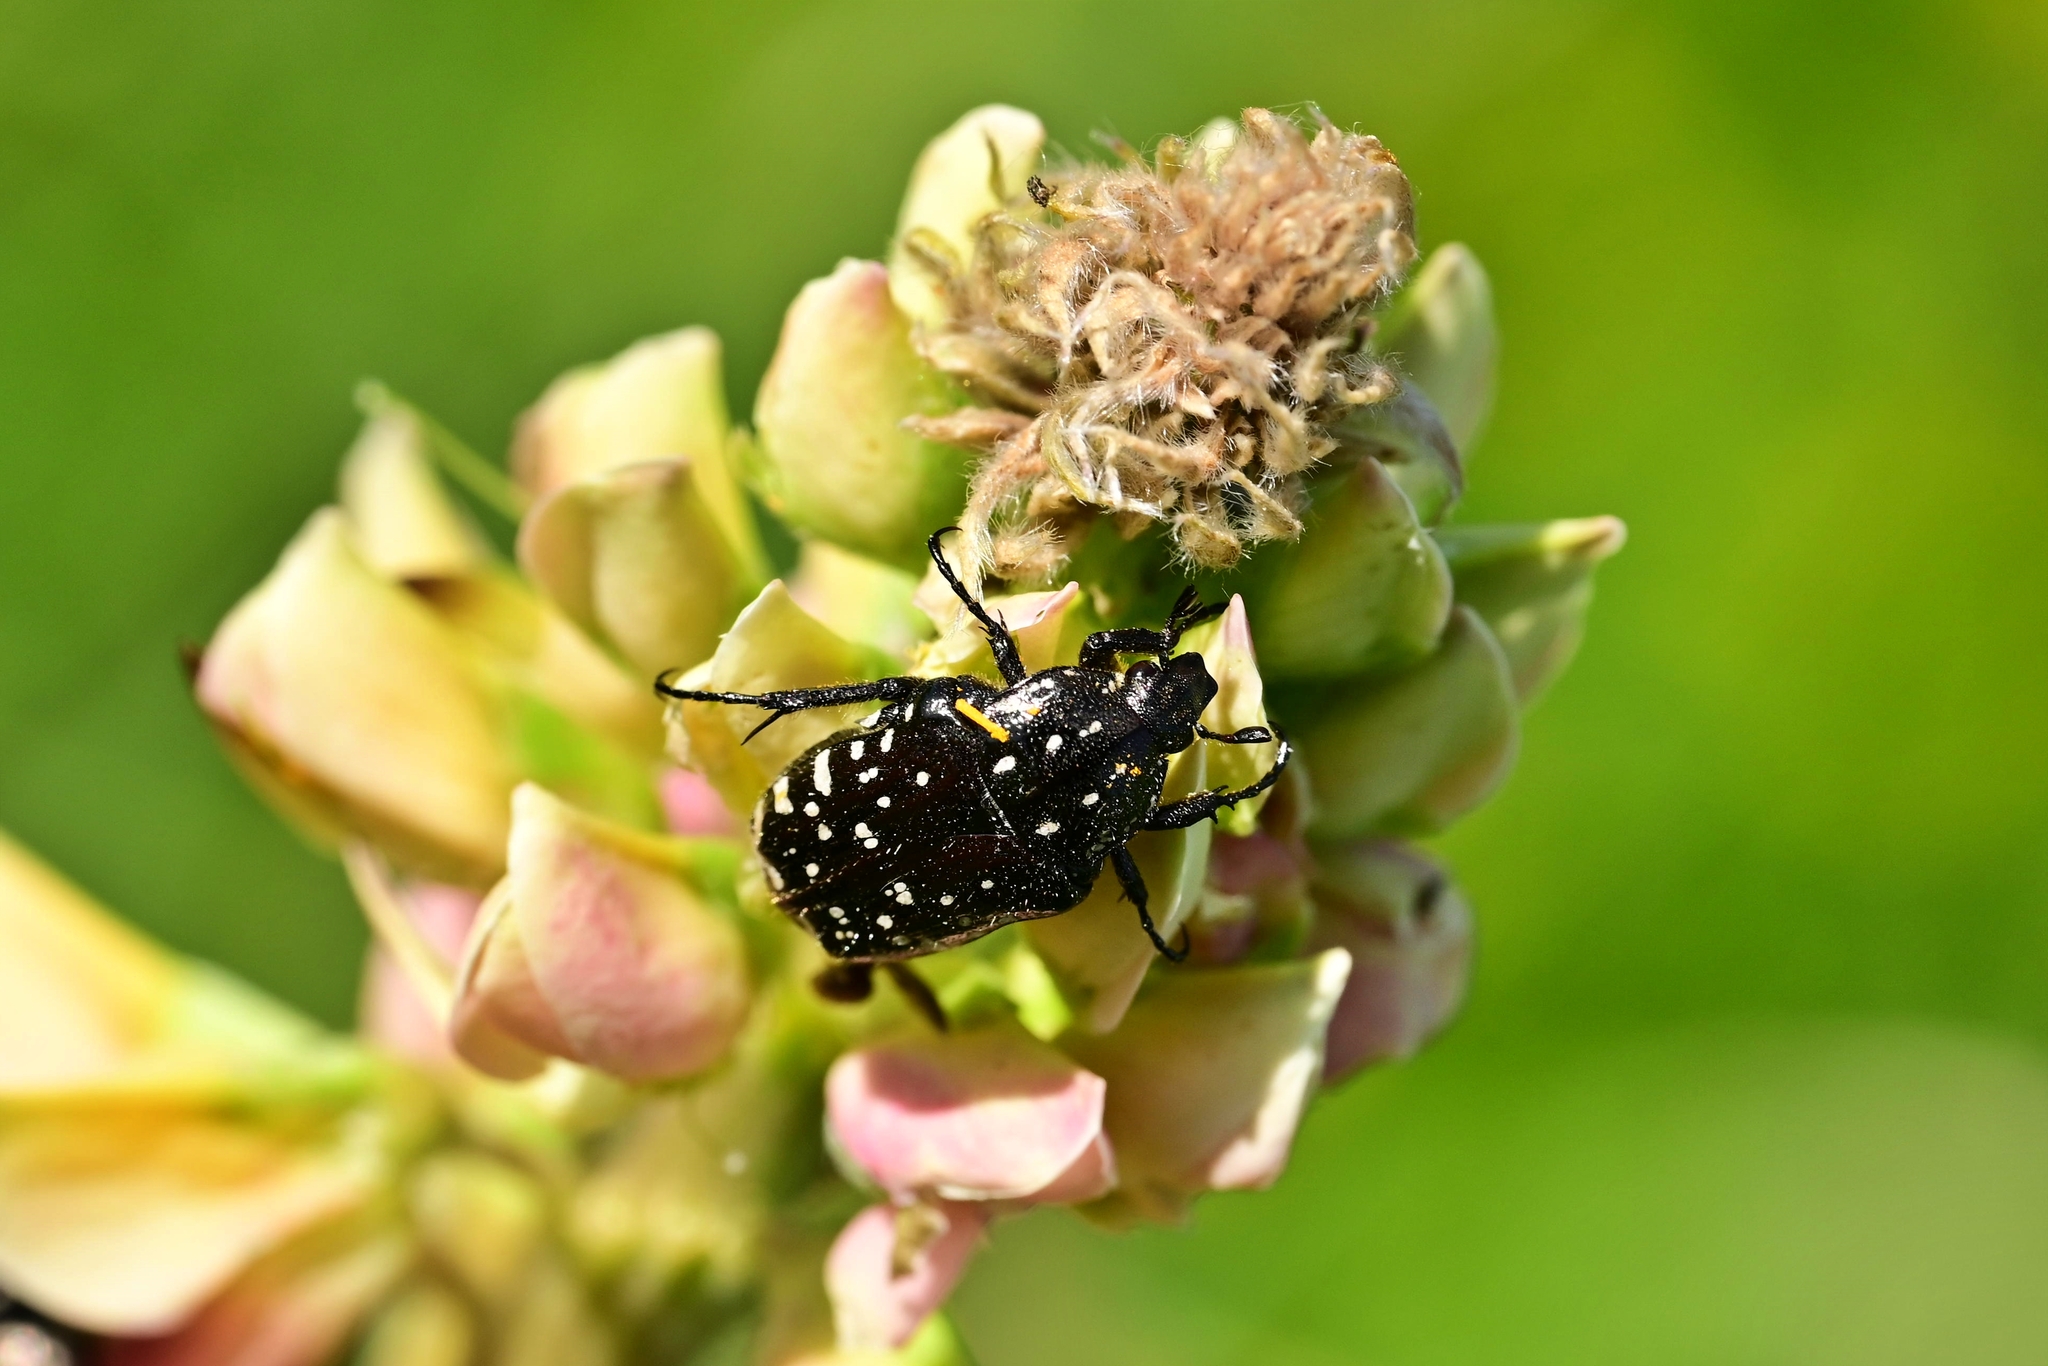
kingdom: Animalia
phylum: Arthropoda
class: Insecta
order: Coleoptera
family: Scarabaeidae
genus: Oxythyrea
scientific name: Oxythyrea funesta
